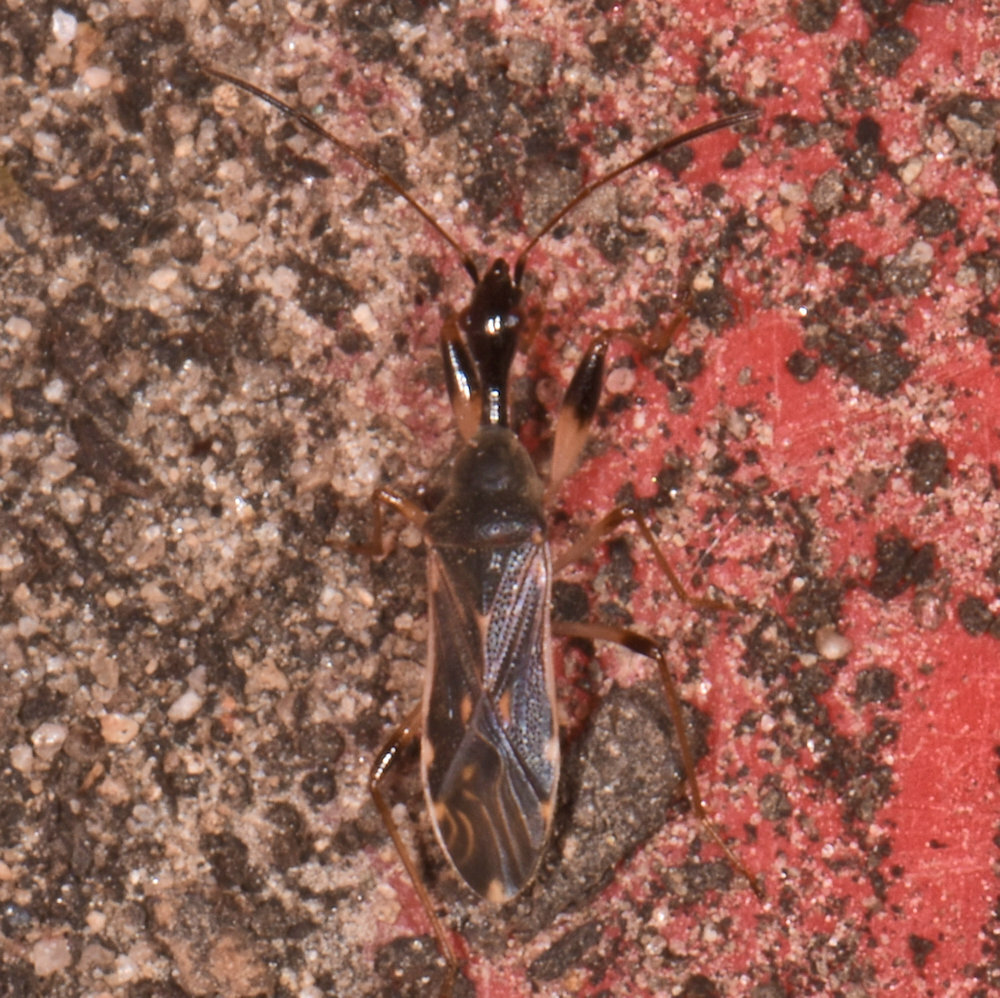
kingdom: Animalia
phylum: Arthropoda
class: Insecta
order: Hemiptera
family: Rhyparochromidae
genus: Myodocha
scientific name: Myodocha serripes
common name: Long-necked seed bug
